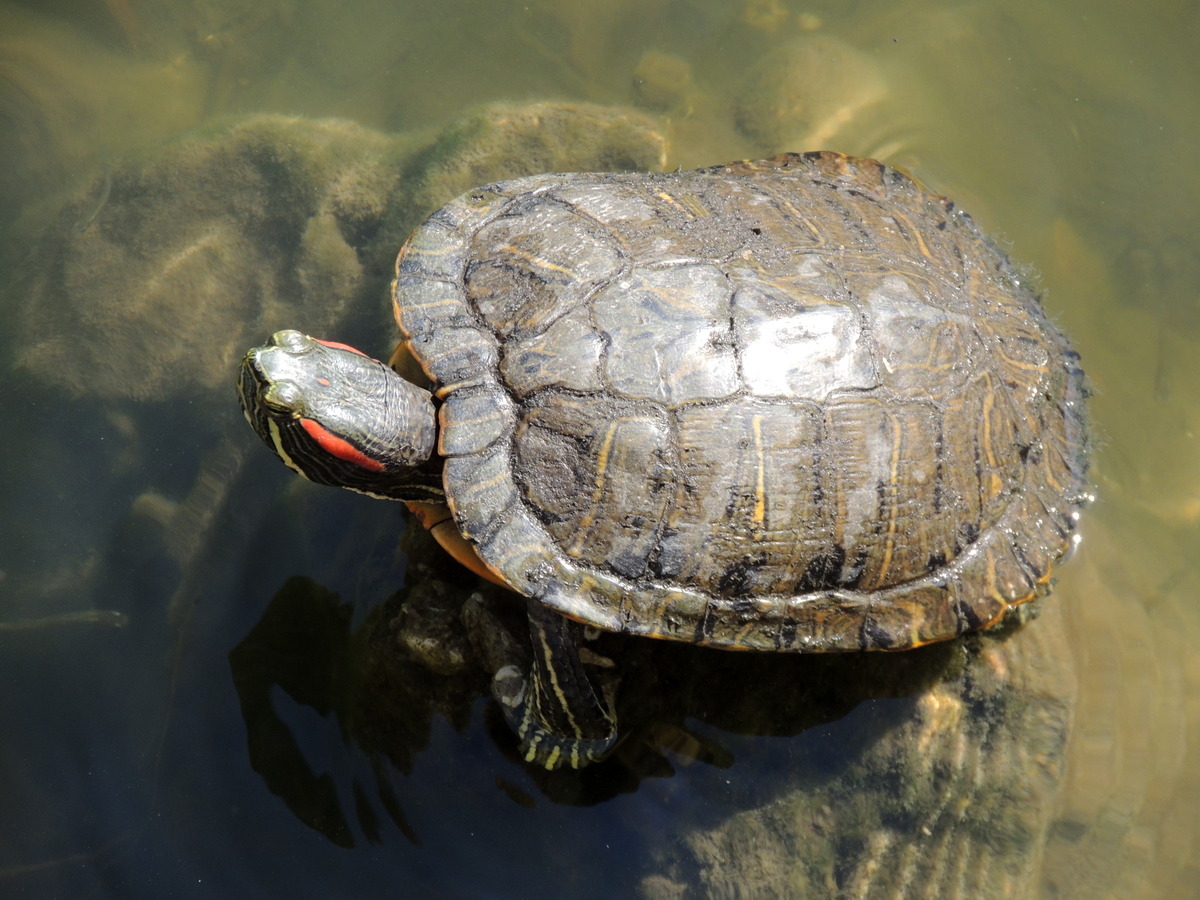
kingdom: Animalia
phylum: Chordata
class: Testudines
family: Emydidae
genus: Trachemys
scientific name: Trachemys scripta
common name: Slider
